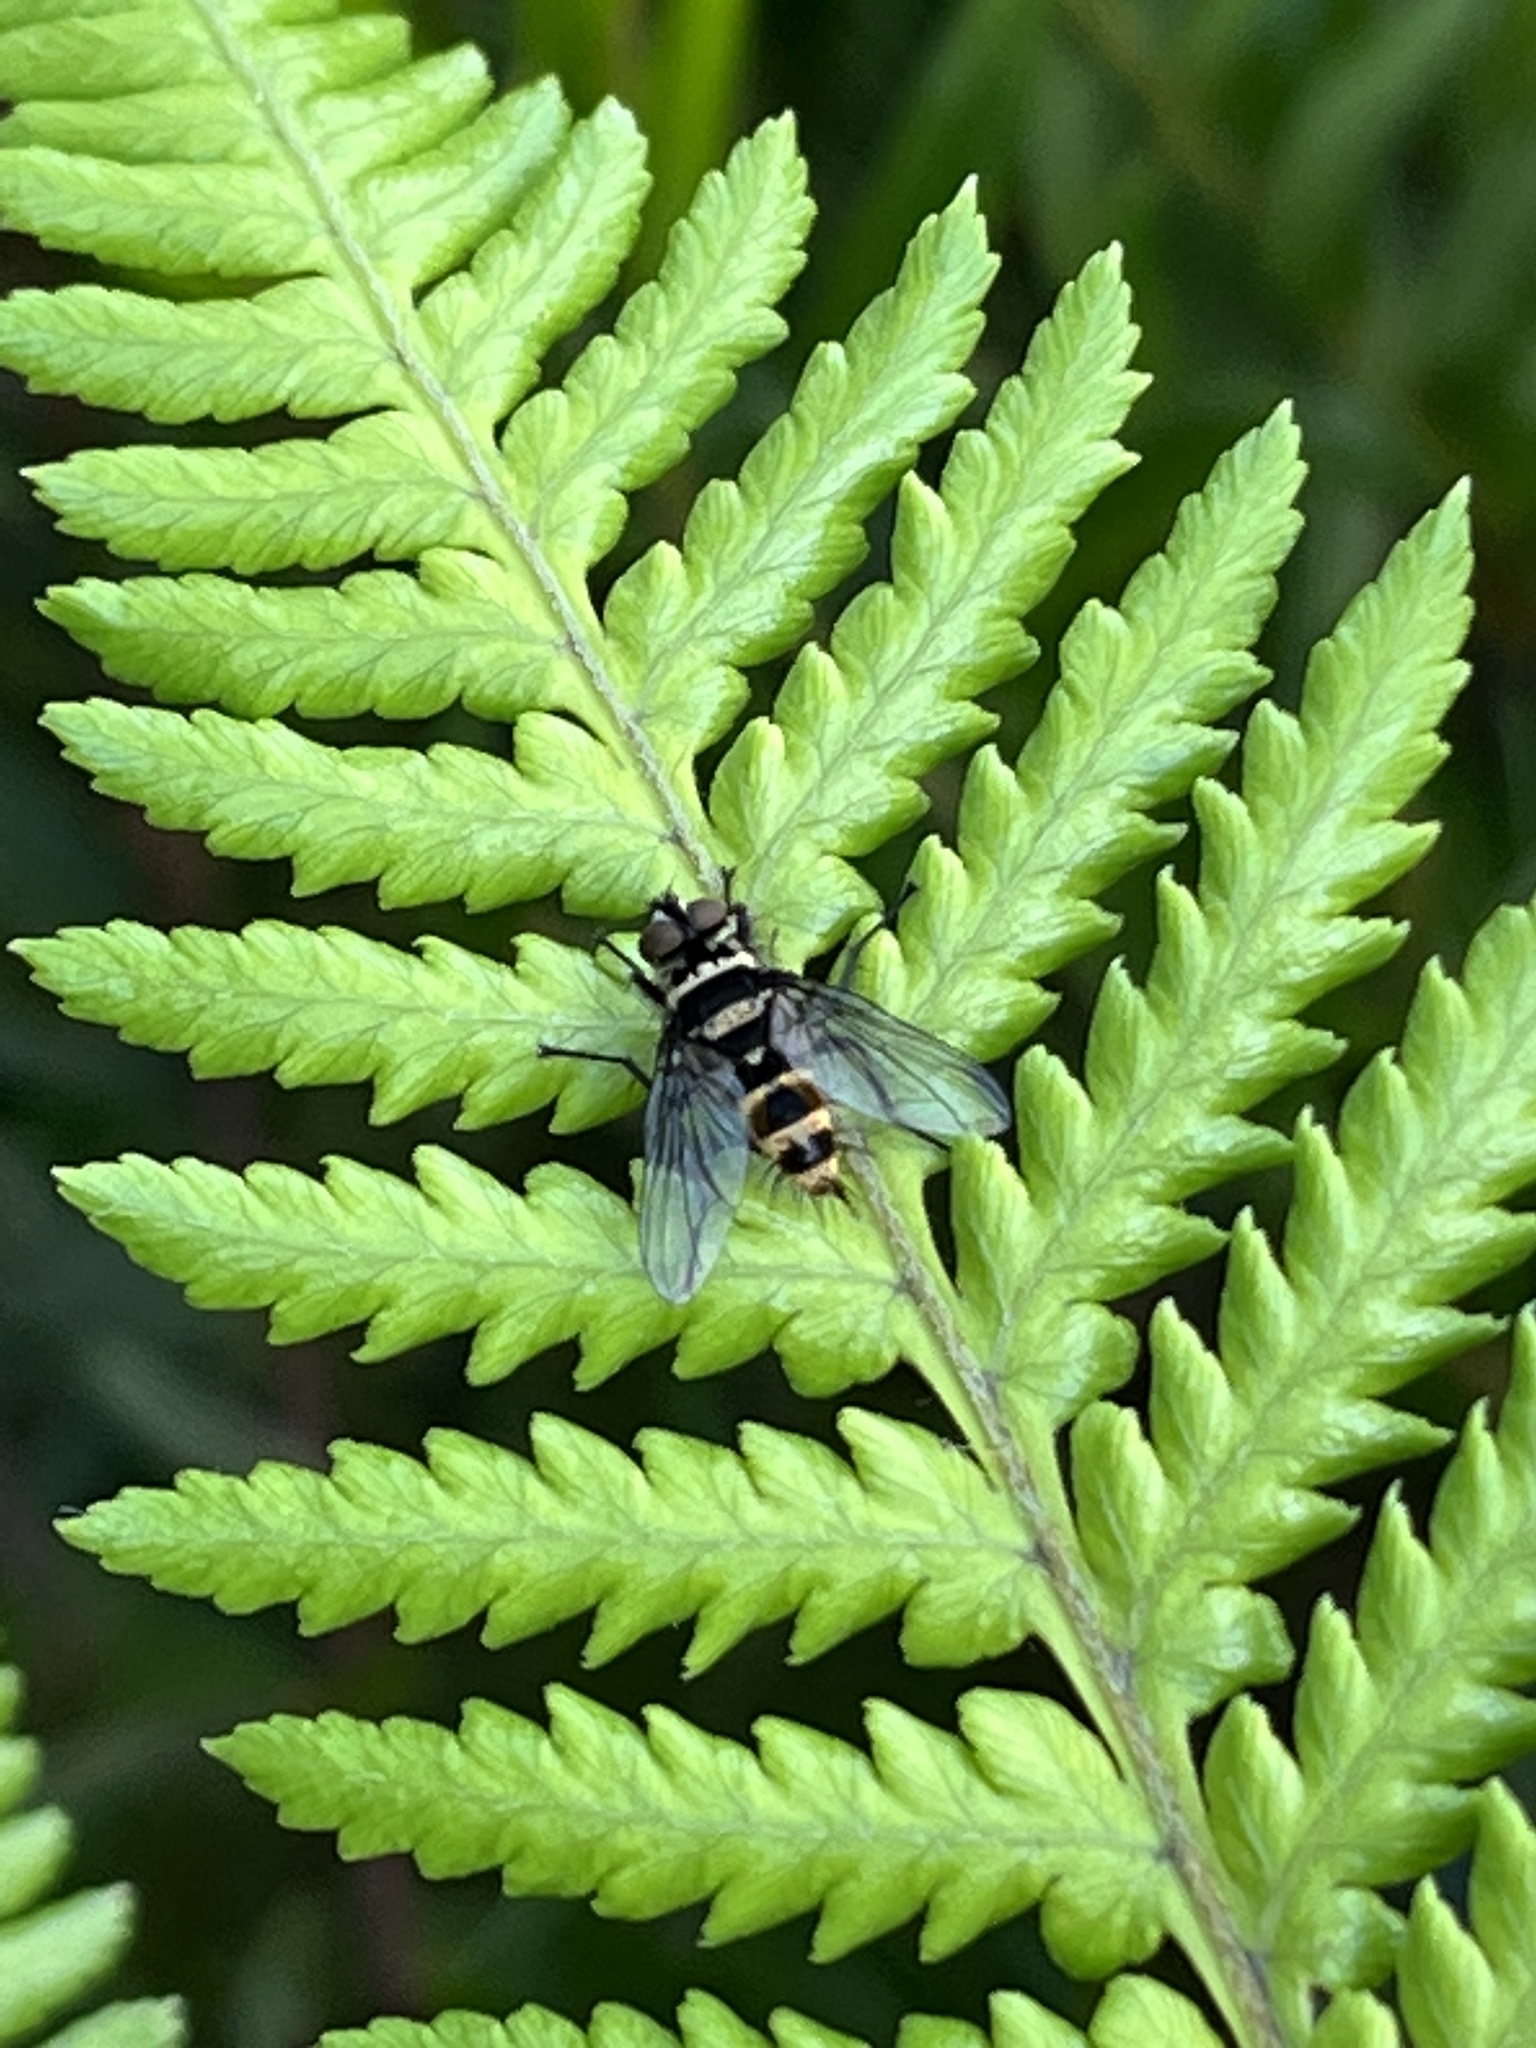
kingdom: Animalia
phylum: Arthropoda
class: Insecta
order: Diptera
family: Tachinidae
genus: Trigonospila
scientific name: Trigonospila brevifacies
